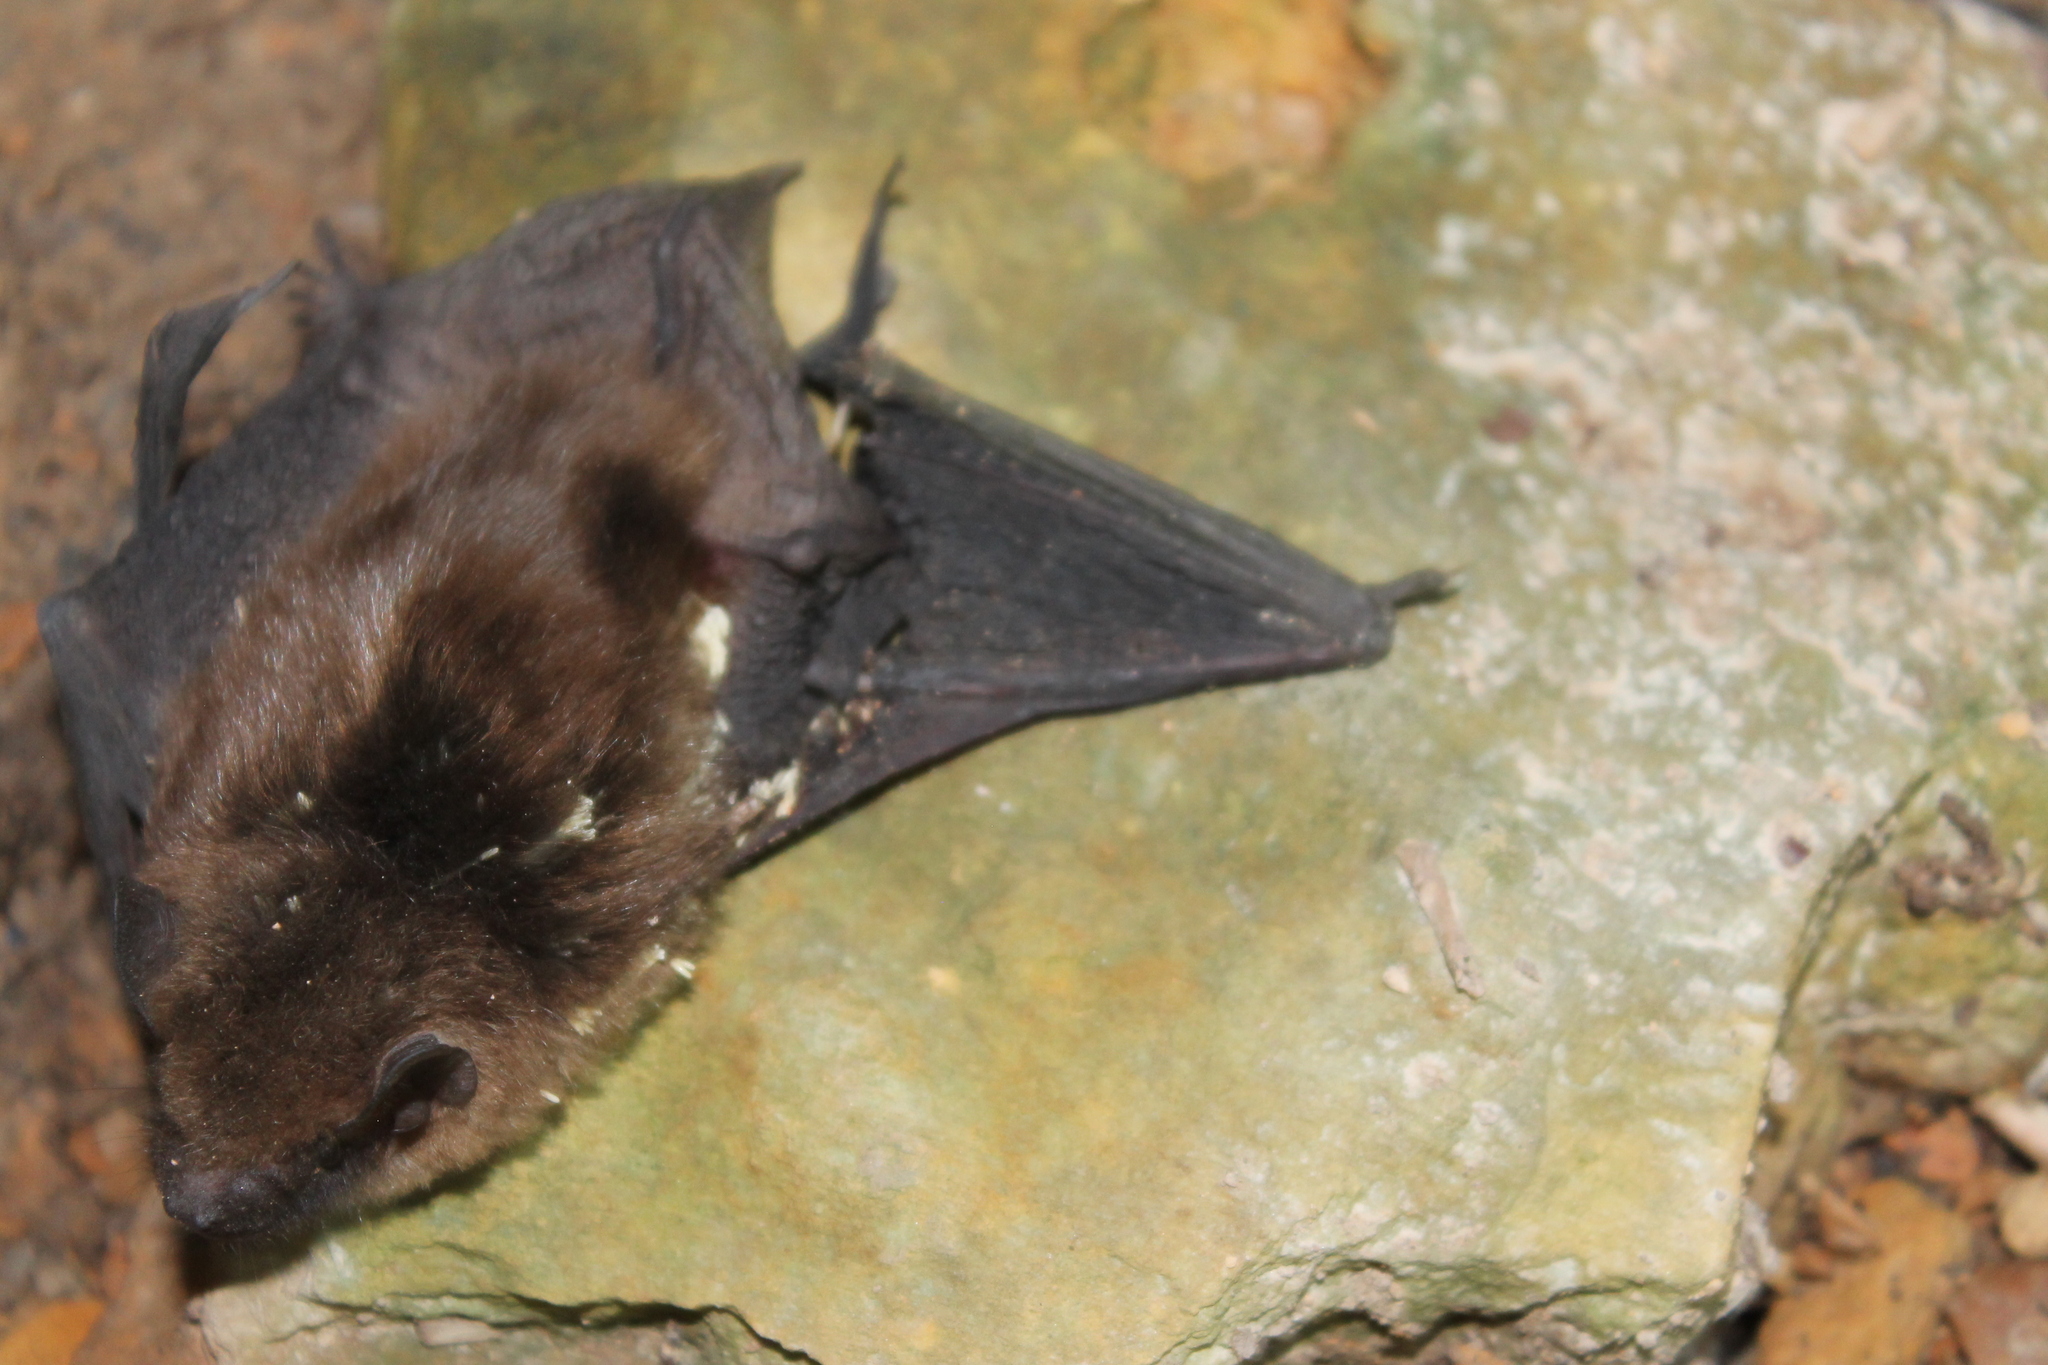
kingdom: Animalia
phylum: Chordata
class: Mammalia
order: Chiroptera
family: Vespertilionidae
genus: Eptesicus
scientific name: Eptesicus fuscus
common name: Big brown bat
